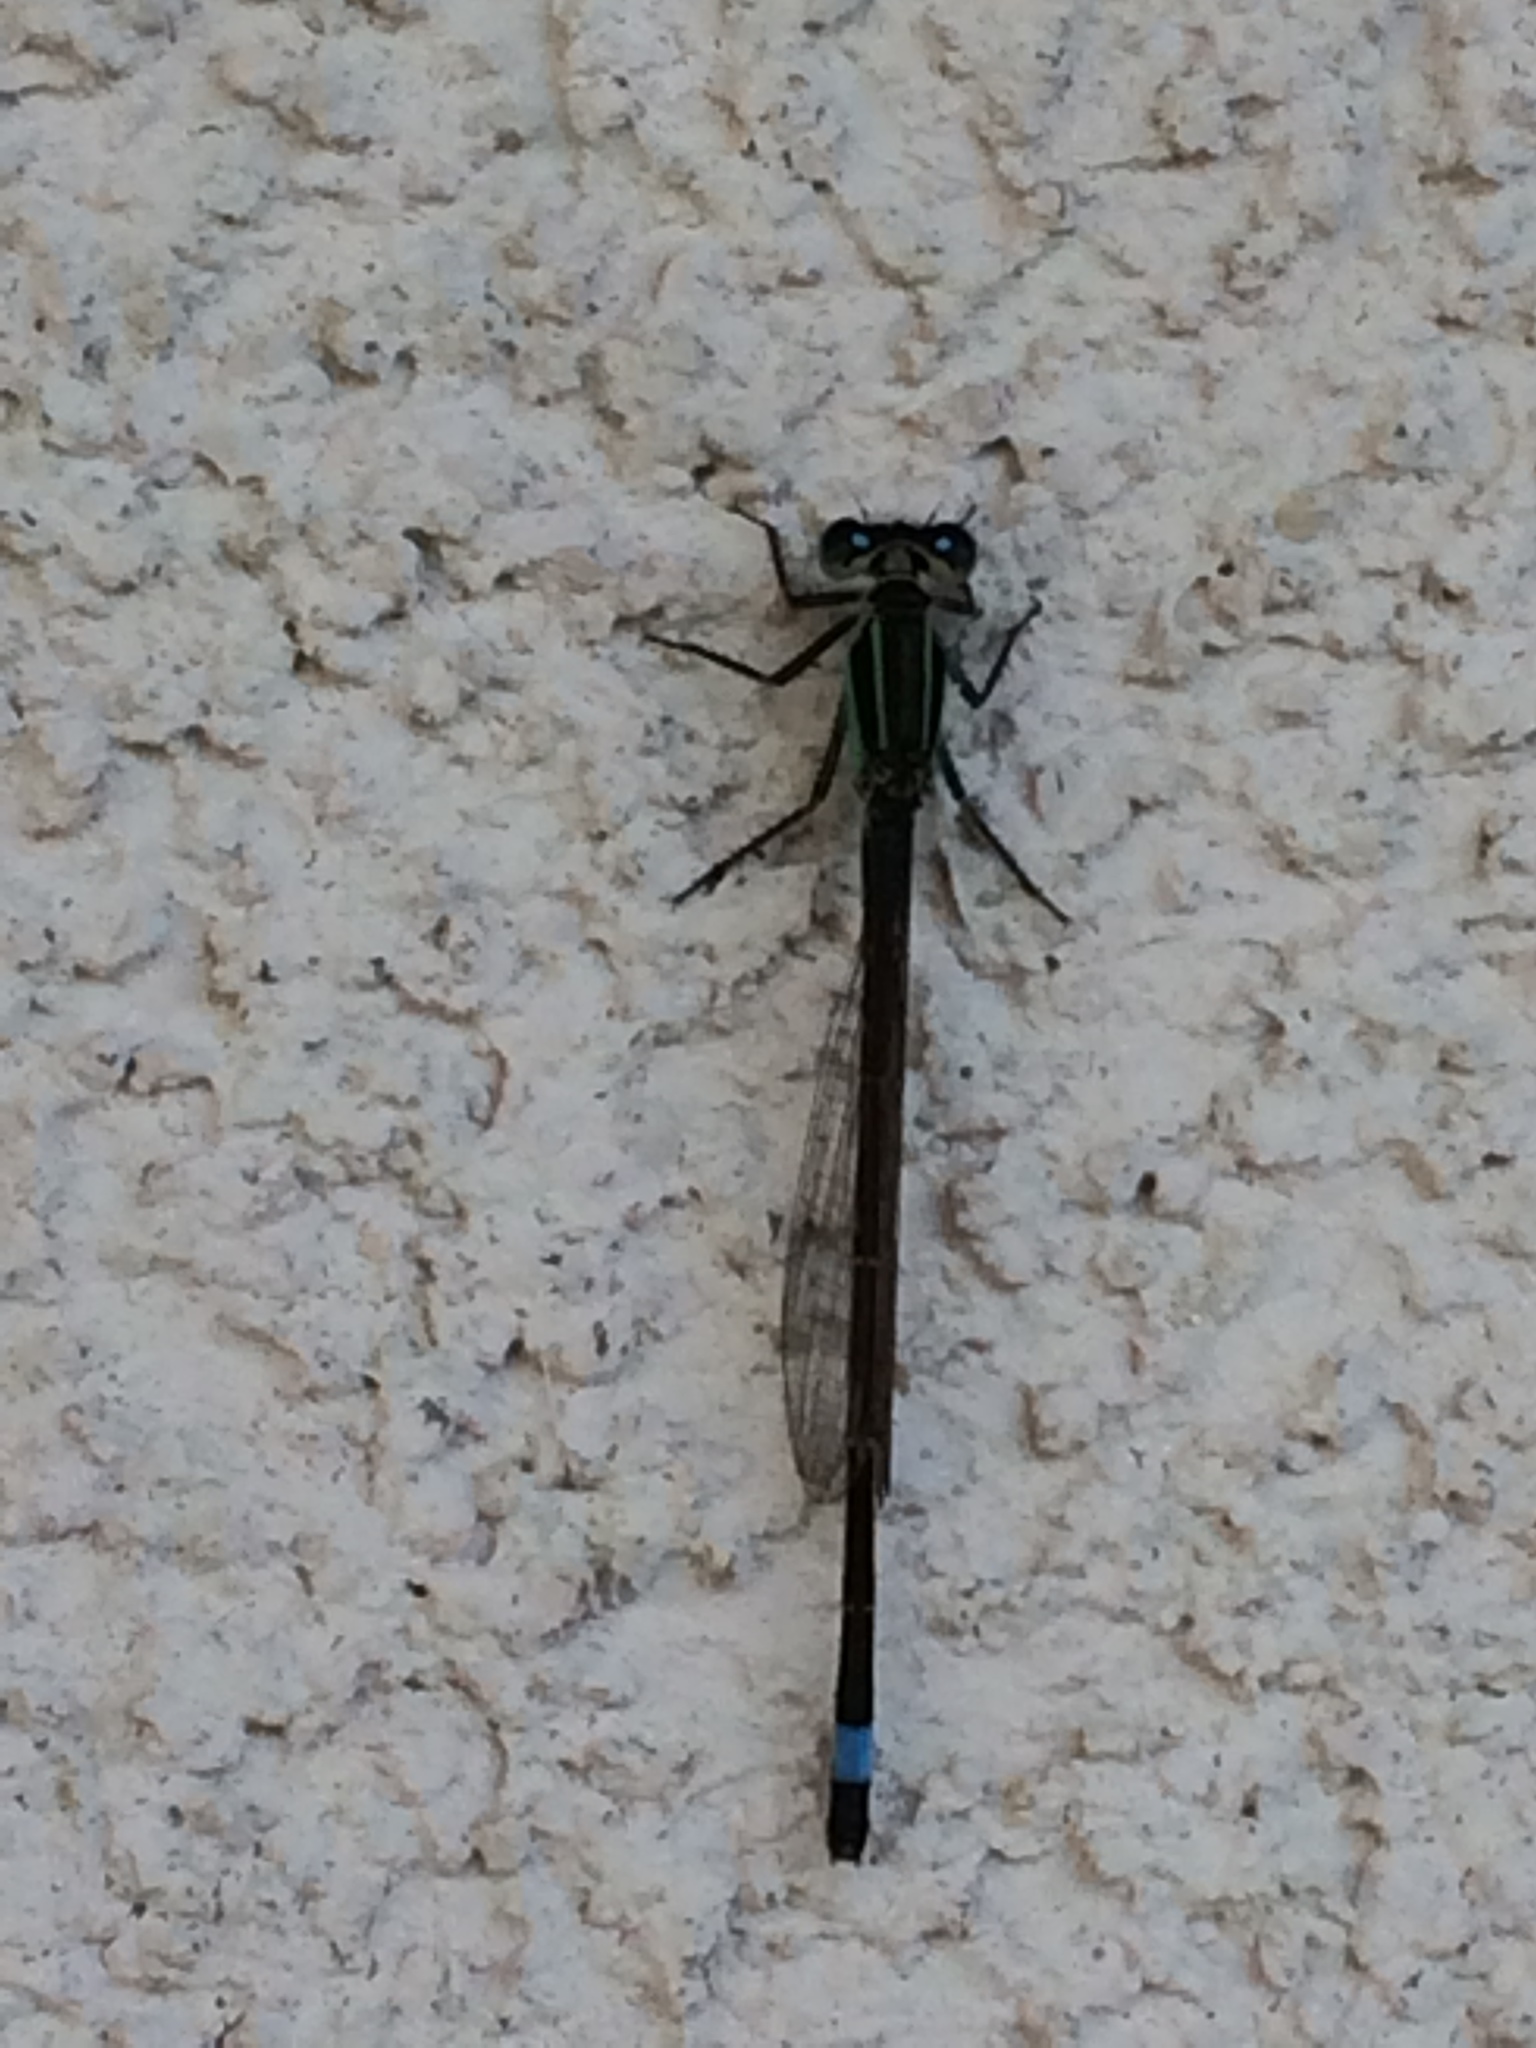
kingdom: Animalia
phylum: Arthropoda
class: Insecta
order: Odonata
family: Coenagrionidae
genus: Ischnura
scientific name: Ischnura ramburii
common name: Rambur's forktail
